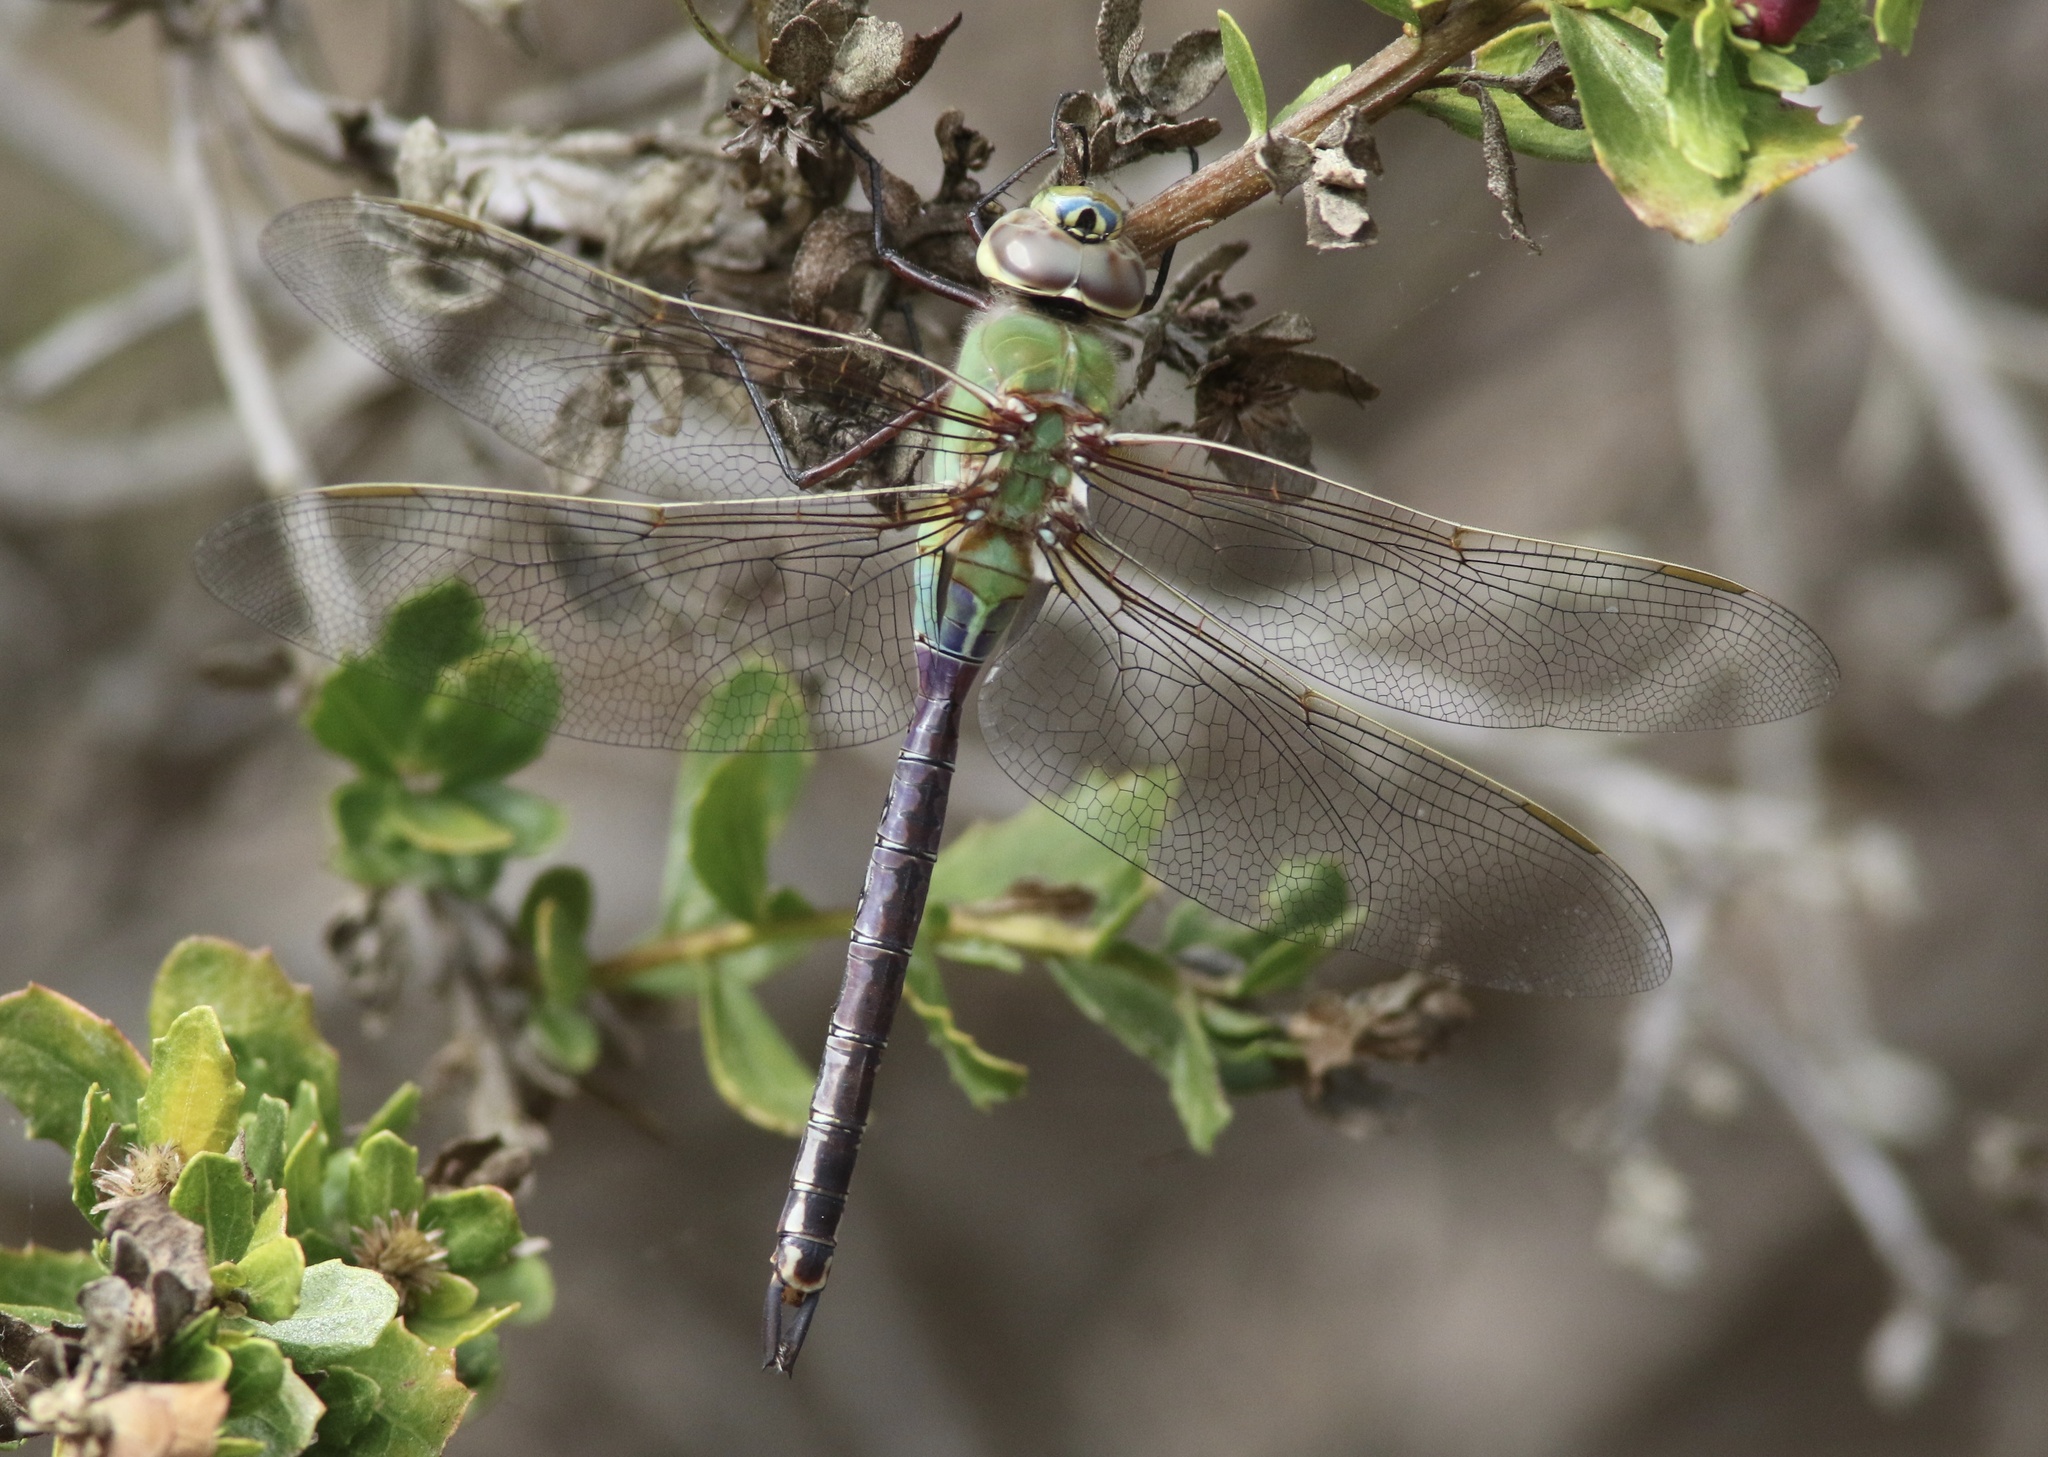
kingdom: Animalia
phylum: Arthropoda
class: Insecta
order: Odonata
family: Aeshnidae
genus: Anax
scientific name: Anax junius
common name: Common green darner
